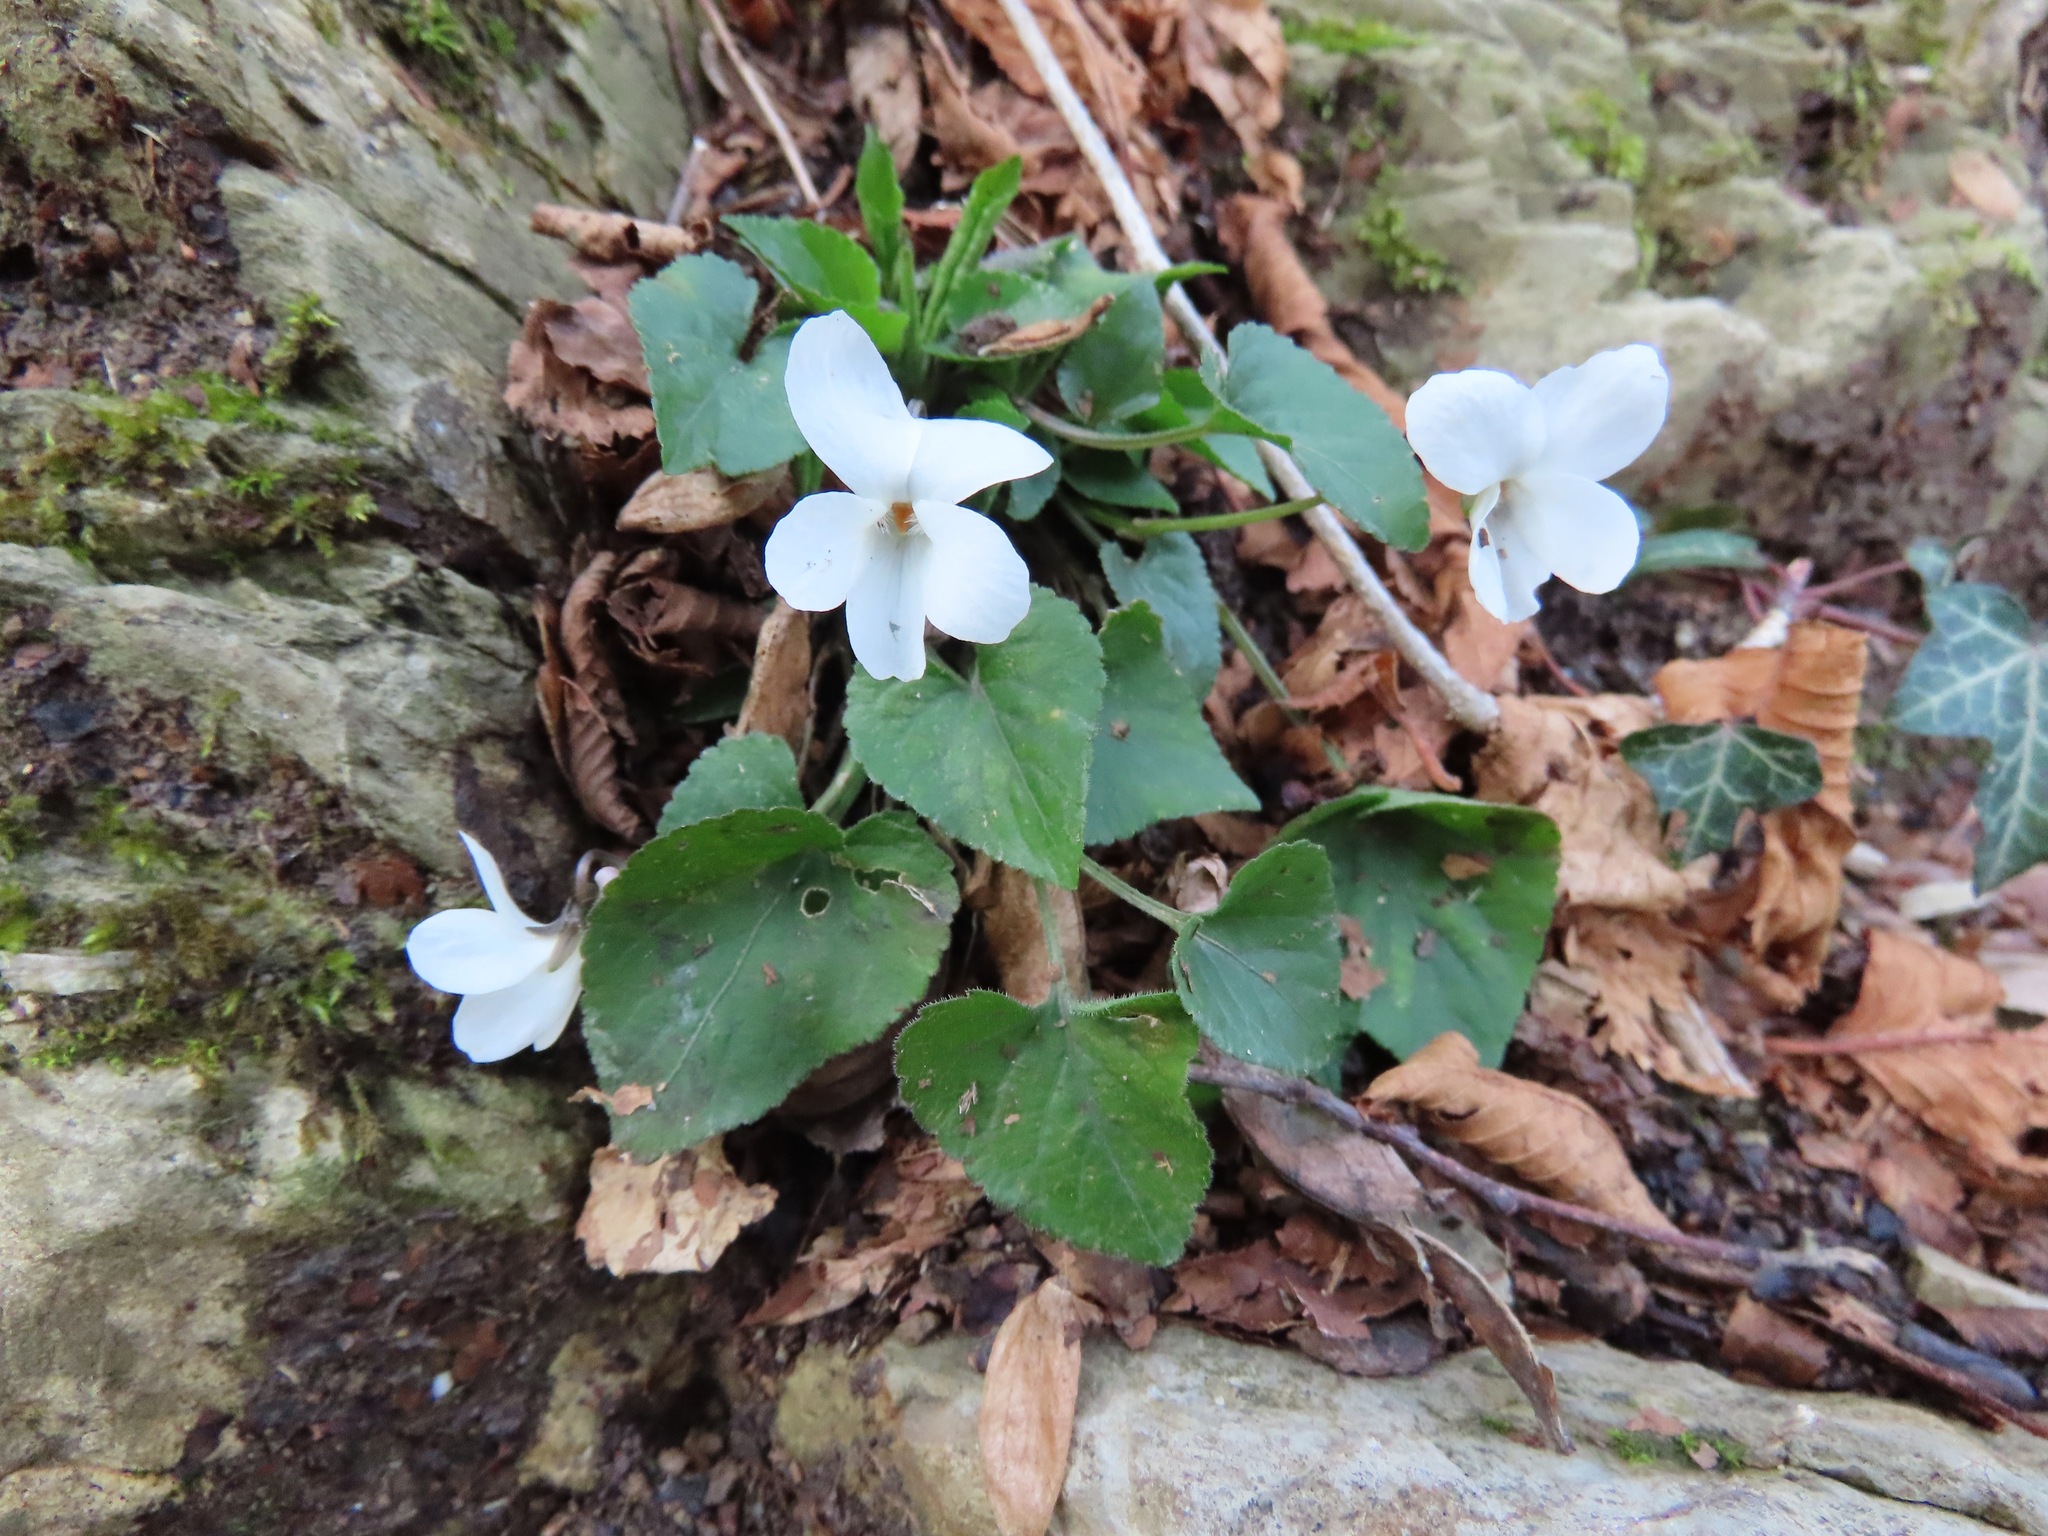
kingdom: Plantae
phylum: Tracheophyta
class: Magnoliopsida
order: Malpighiales
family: Violaceae
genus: Viola
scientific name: Viola alba
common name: White violet
